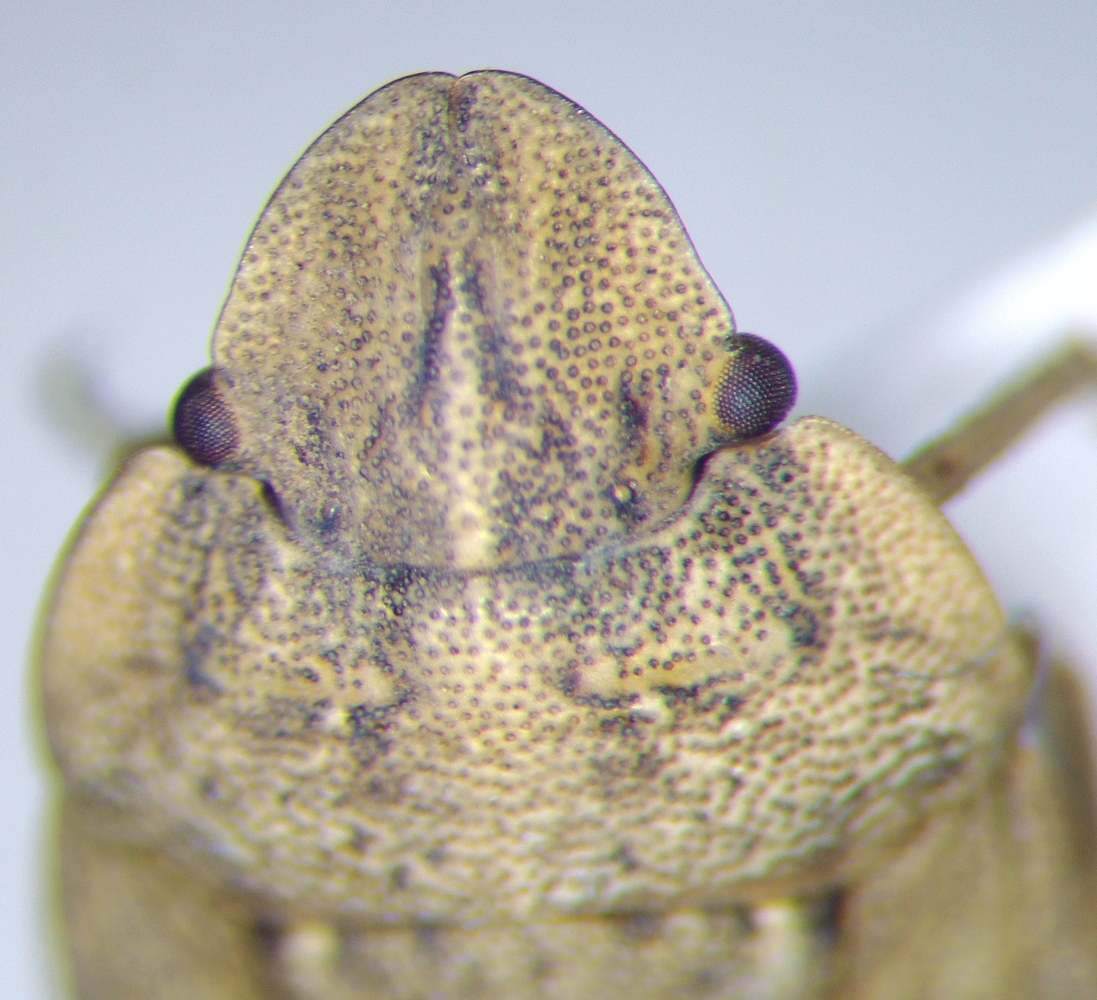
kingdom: Animalia
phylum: Arthropoda
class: Insecta
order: Hemiptera
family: Pentatomidae
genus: Sciocoris
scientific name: Sciocoris cursitans
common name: Sandrunner
